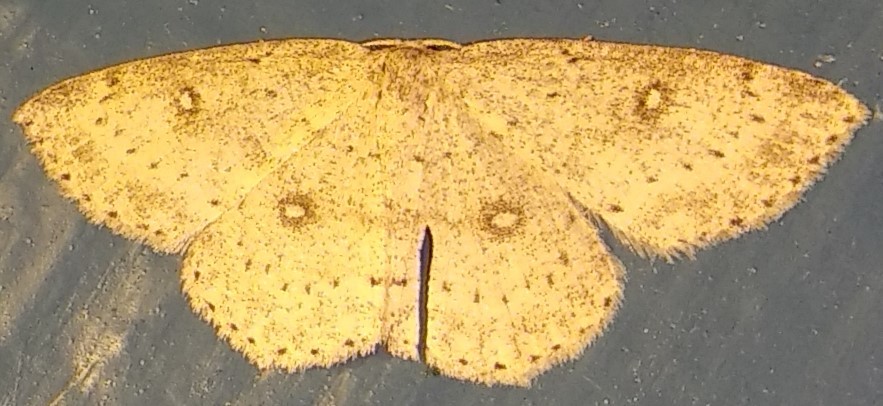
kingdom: Animalia
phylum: Arthropoda
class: Insecta
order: Lepidoptera
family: Geometridae
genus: Cyclophora
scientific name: Cyclophora pendulinaria
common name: Sweet fern geometer
